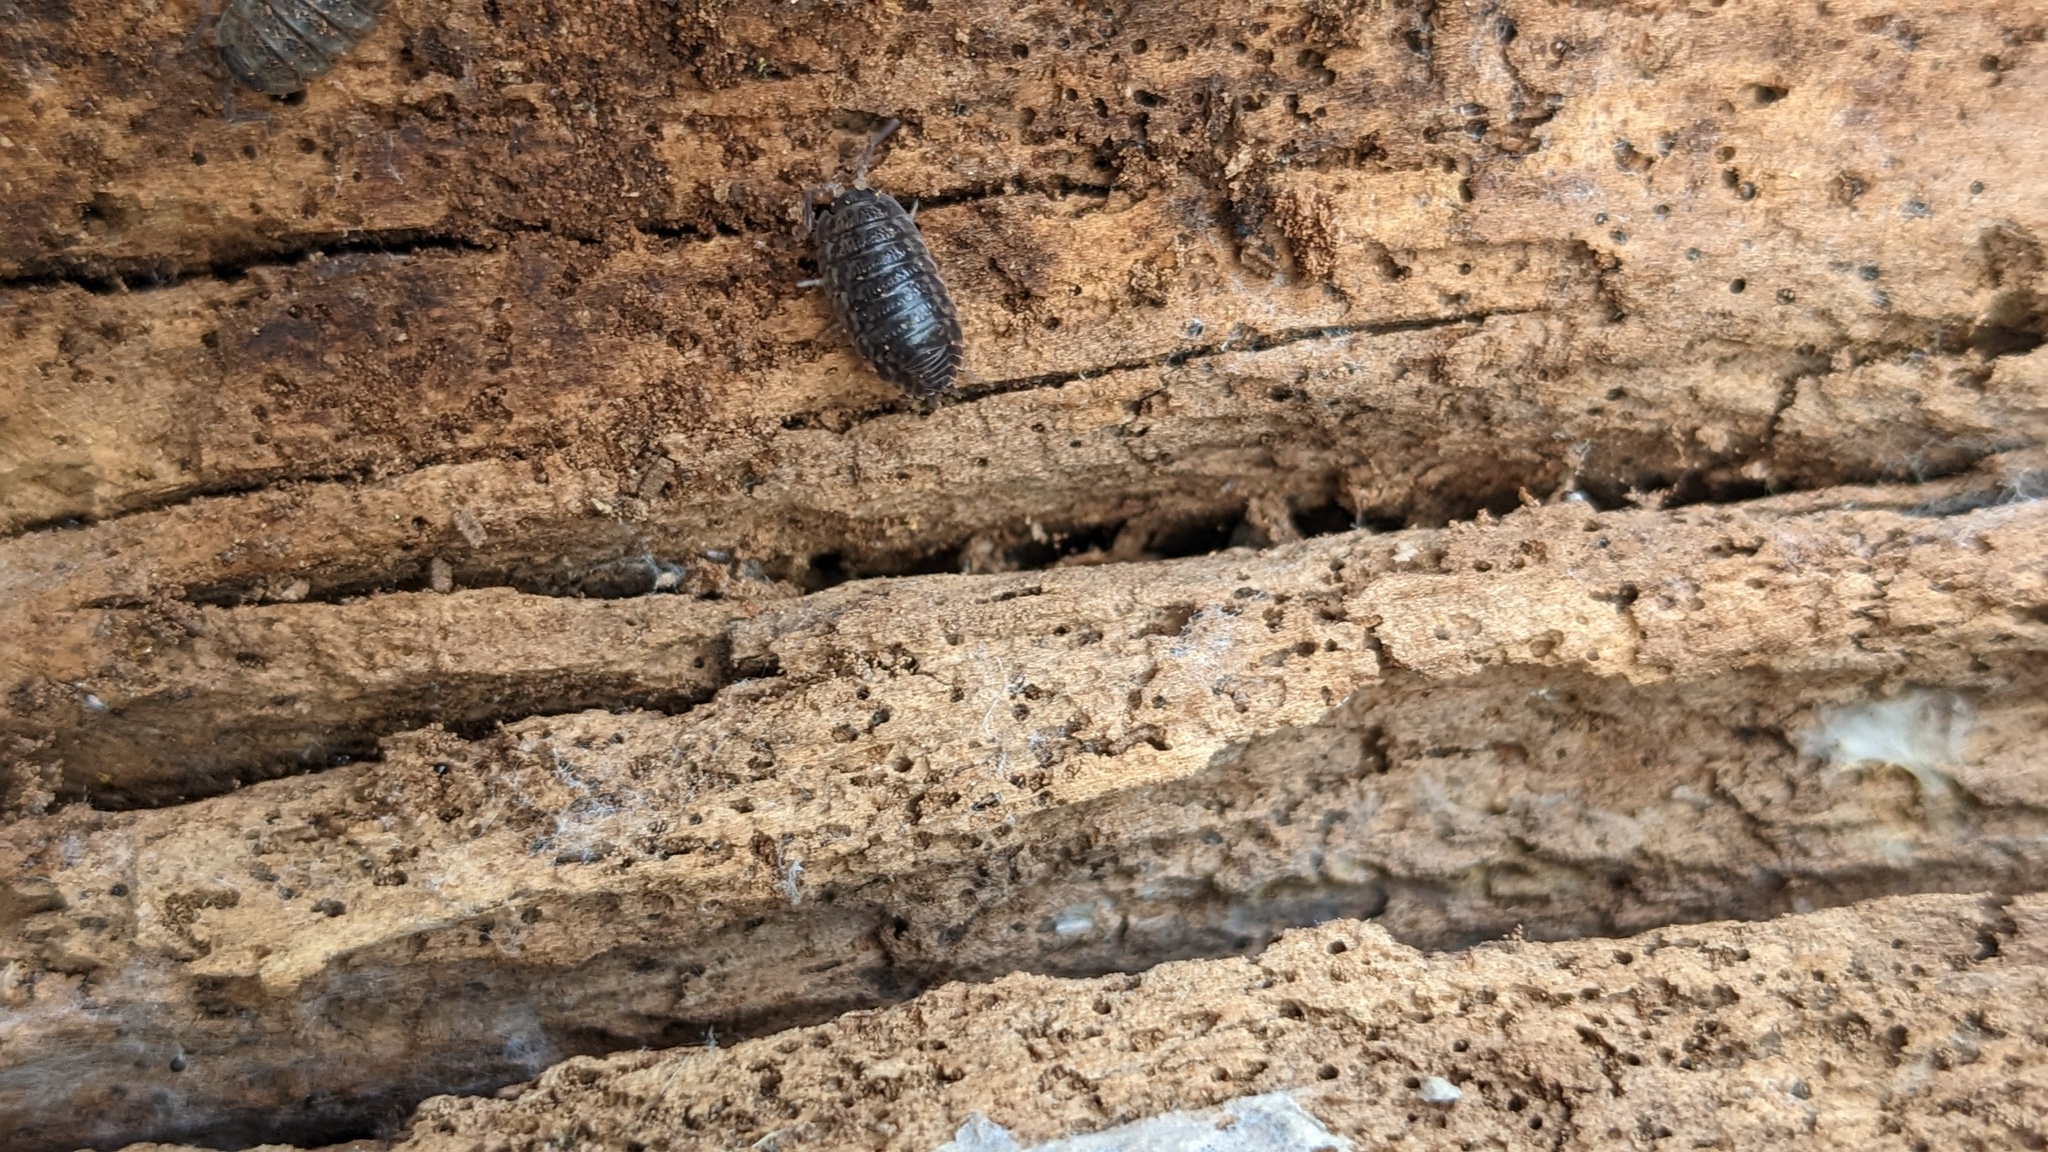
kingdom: Animalia
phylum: Arthropoda
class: Malacostraca
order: Isopoda
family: Trachelipodidae
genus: Trachelipus
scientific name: Trachelipus rathkii
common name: Isopod
